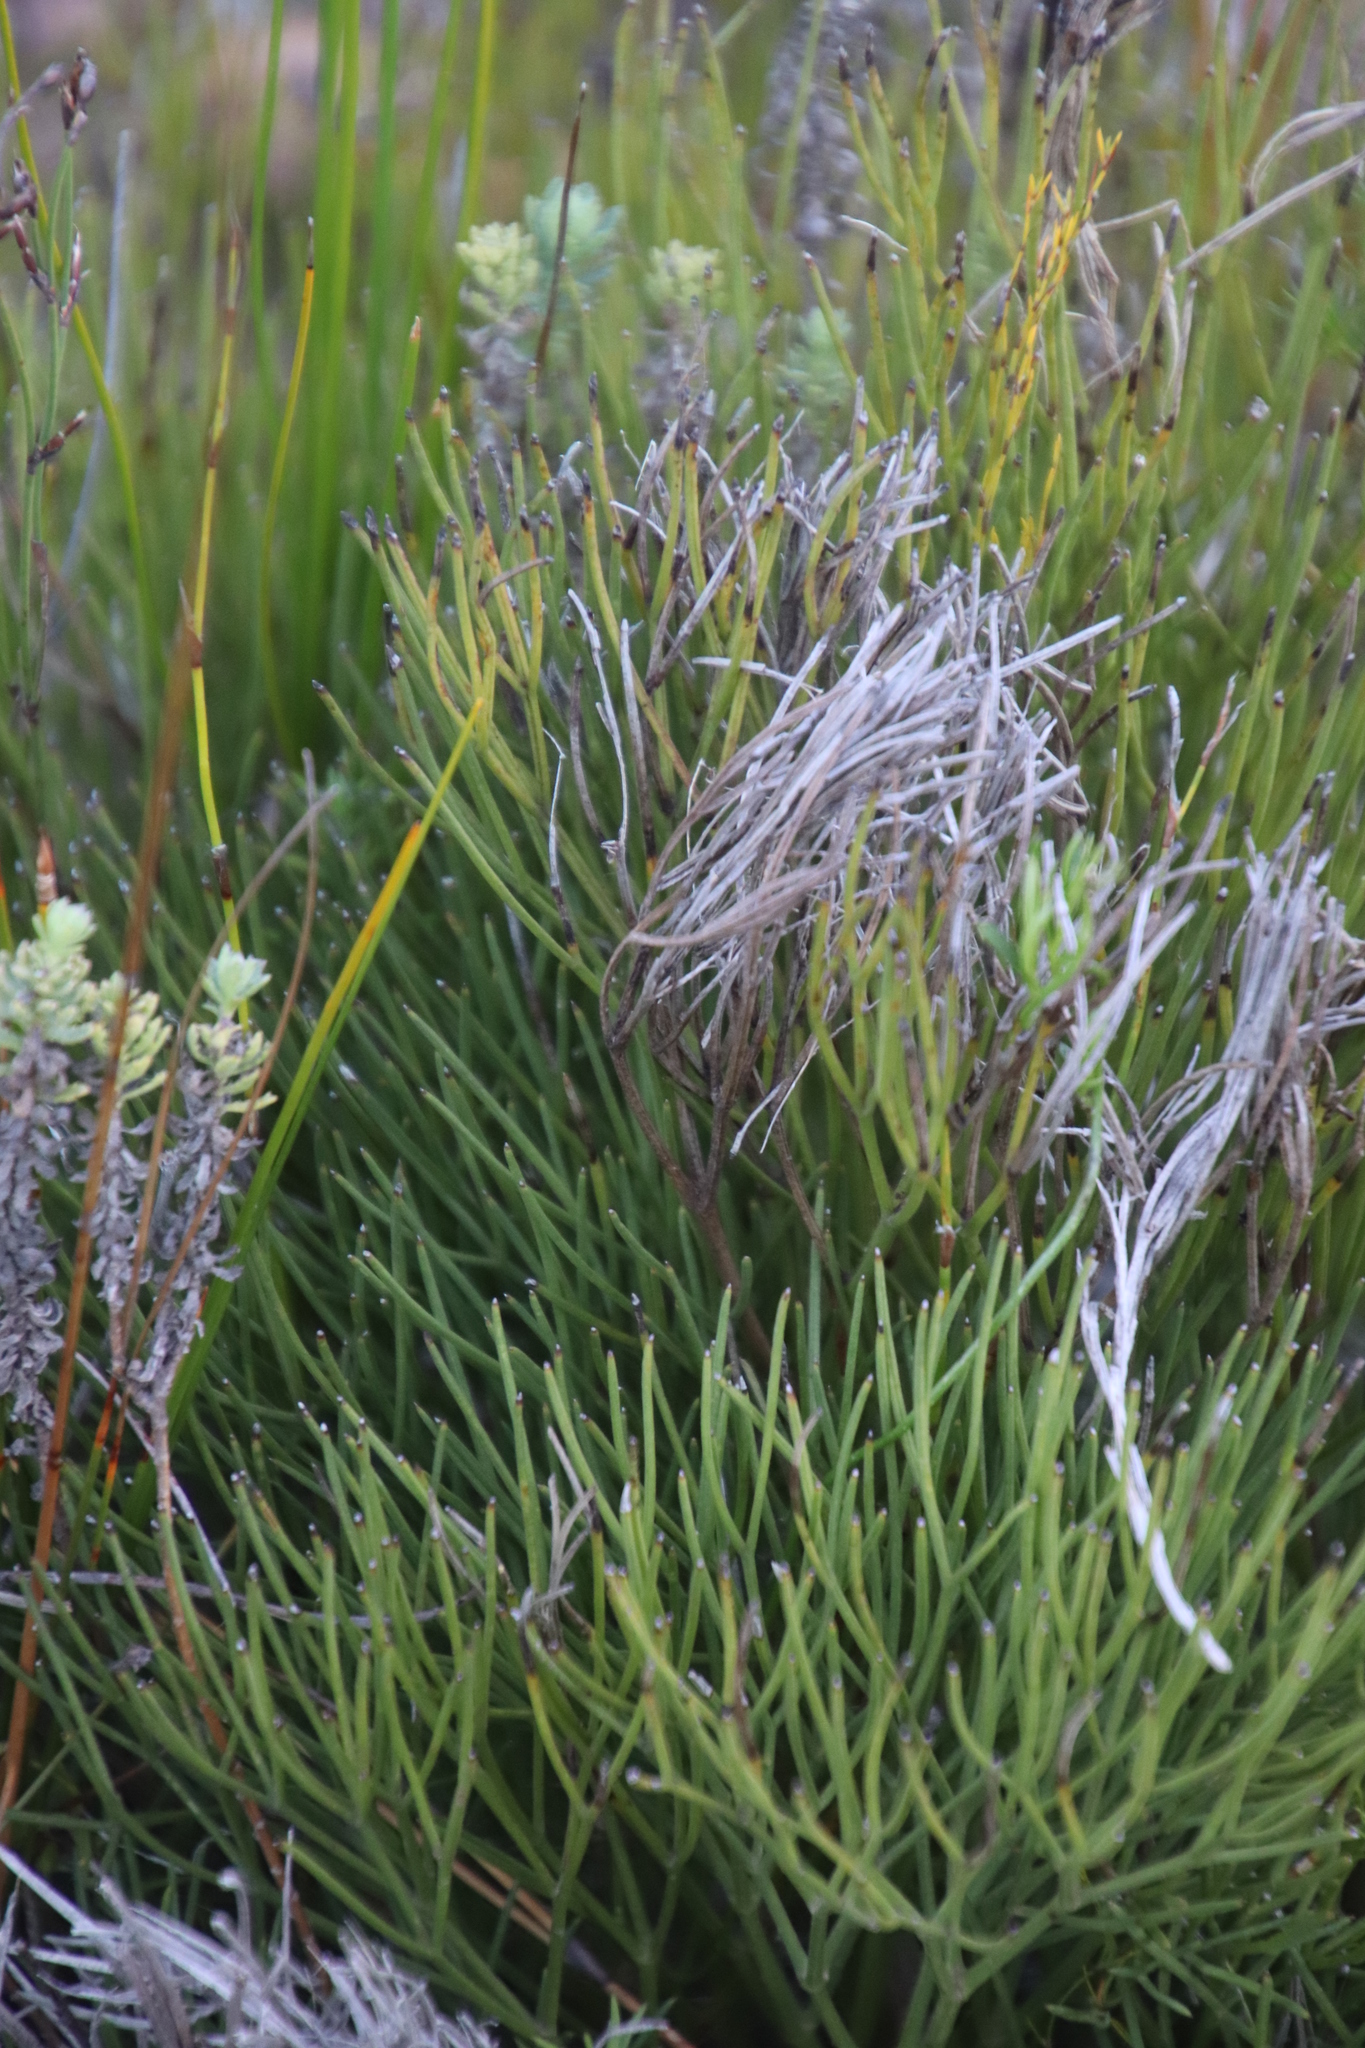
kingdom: Plantae
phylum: Tracheophyta
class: Magnoliopsida
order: Apiales
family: Apiaceae
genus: Nanobubon
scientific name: Nanobubon strictum
